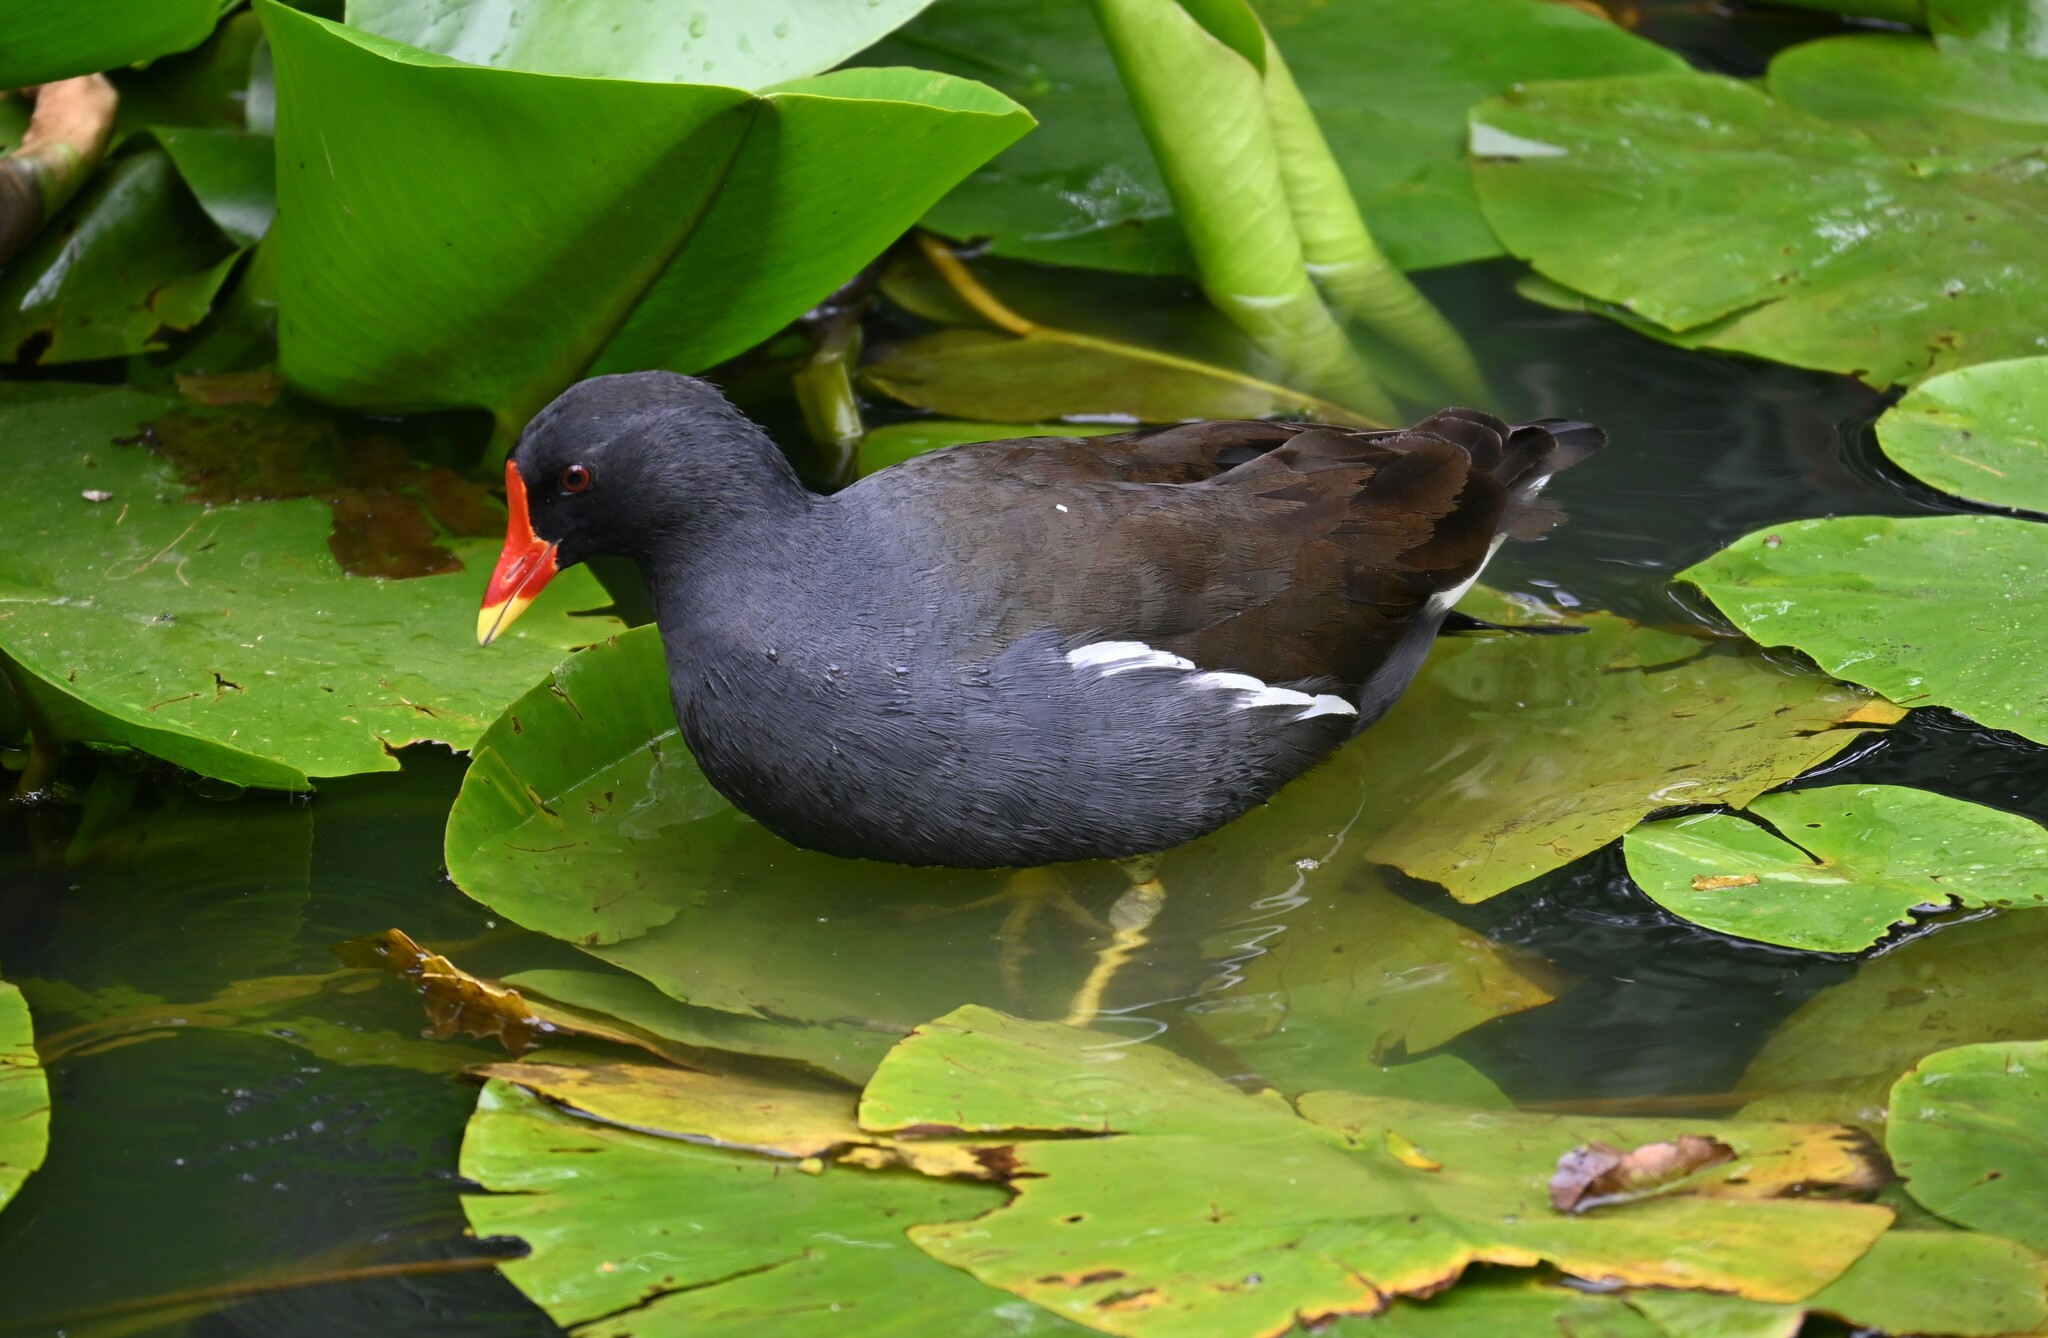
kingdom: Animalia
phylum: Chordata
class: Aves
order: Gruiformes
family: Rallidae
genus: Gallinula
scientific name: Gallinula chloropus
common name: Common moorhen
